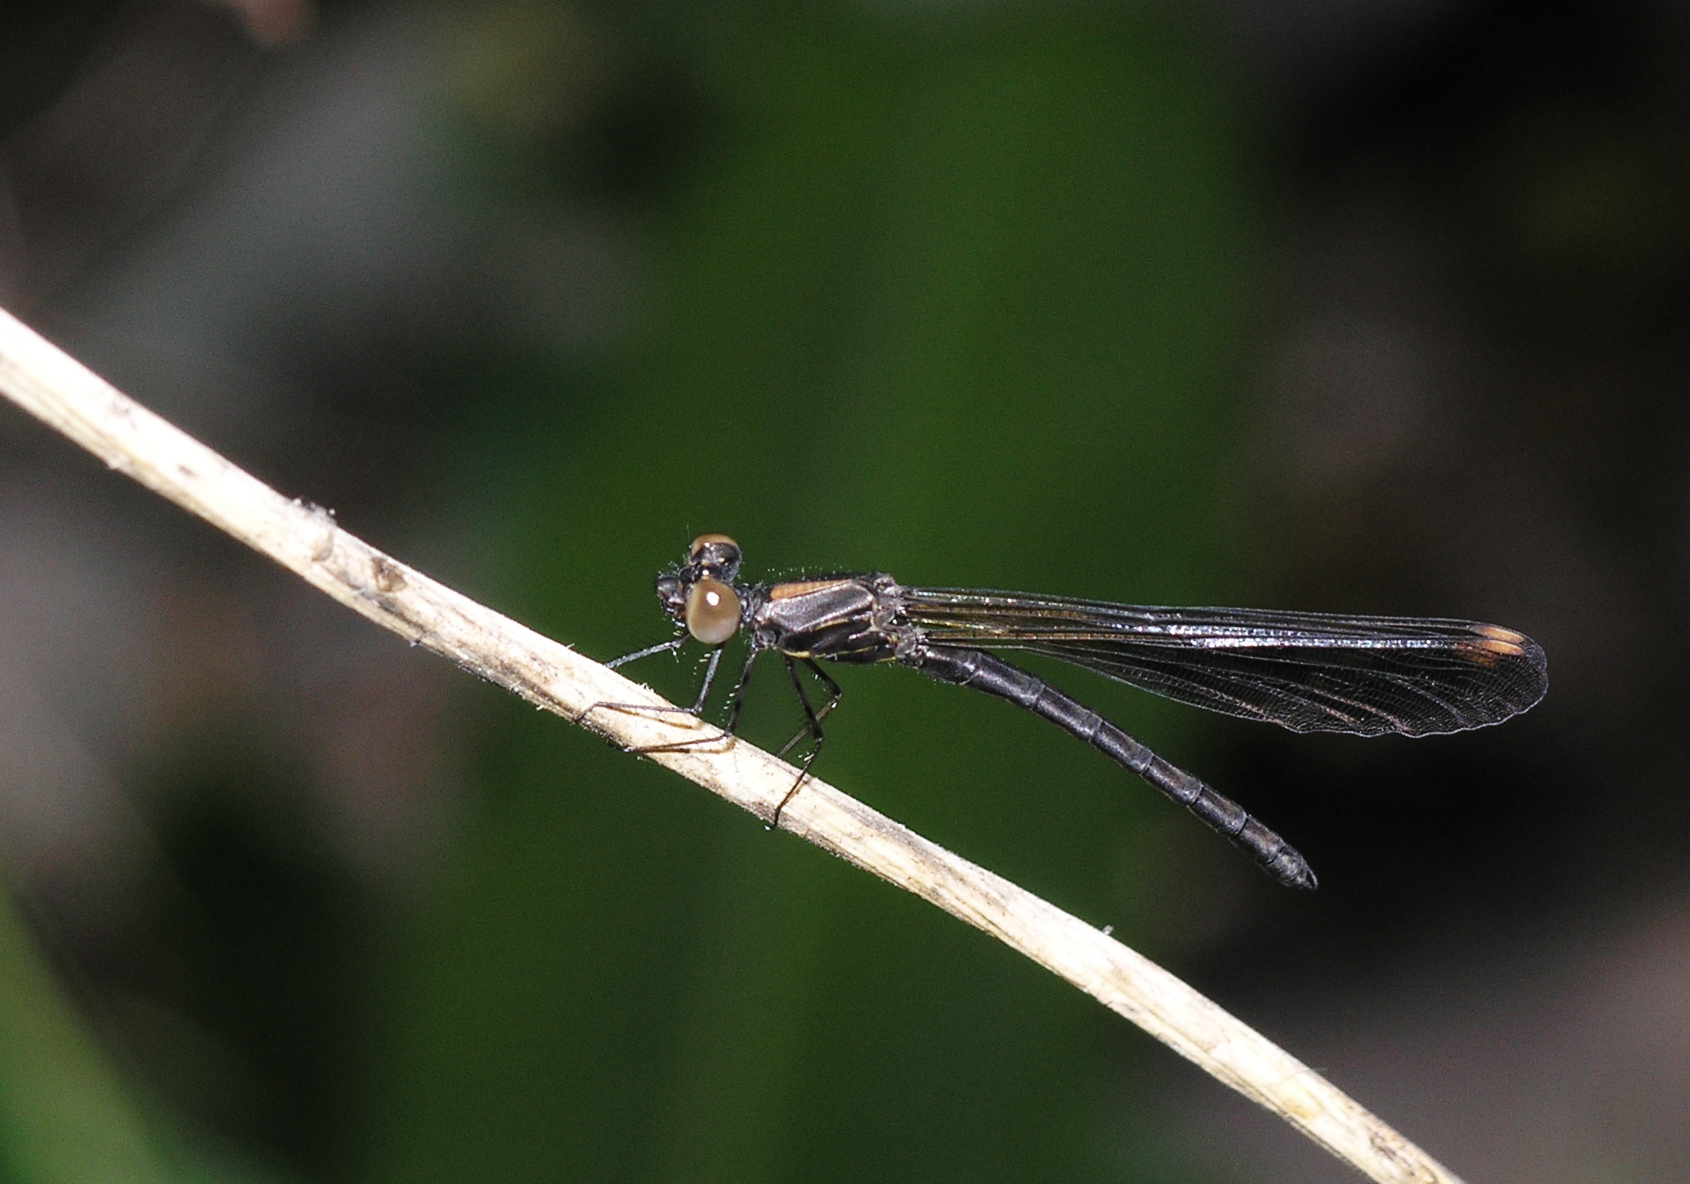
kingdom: Animalia
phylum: Arthropoda
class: Insecta
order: Odonata
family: Chlorocyphidae
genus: Aristocypha
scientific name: Aristocypha fenestrella
